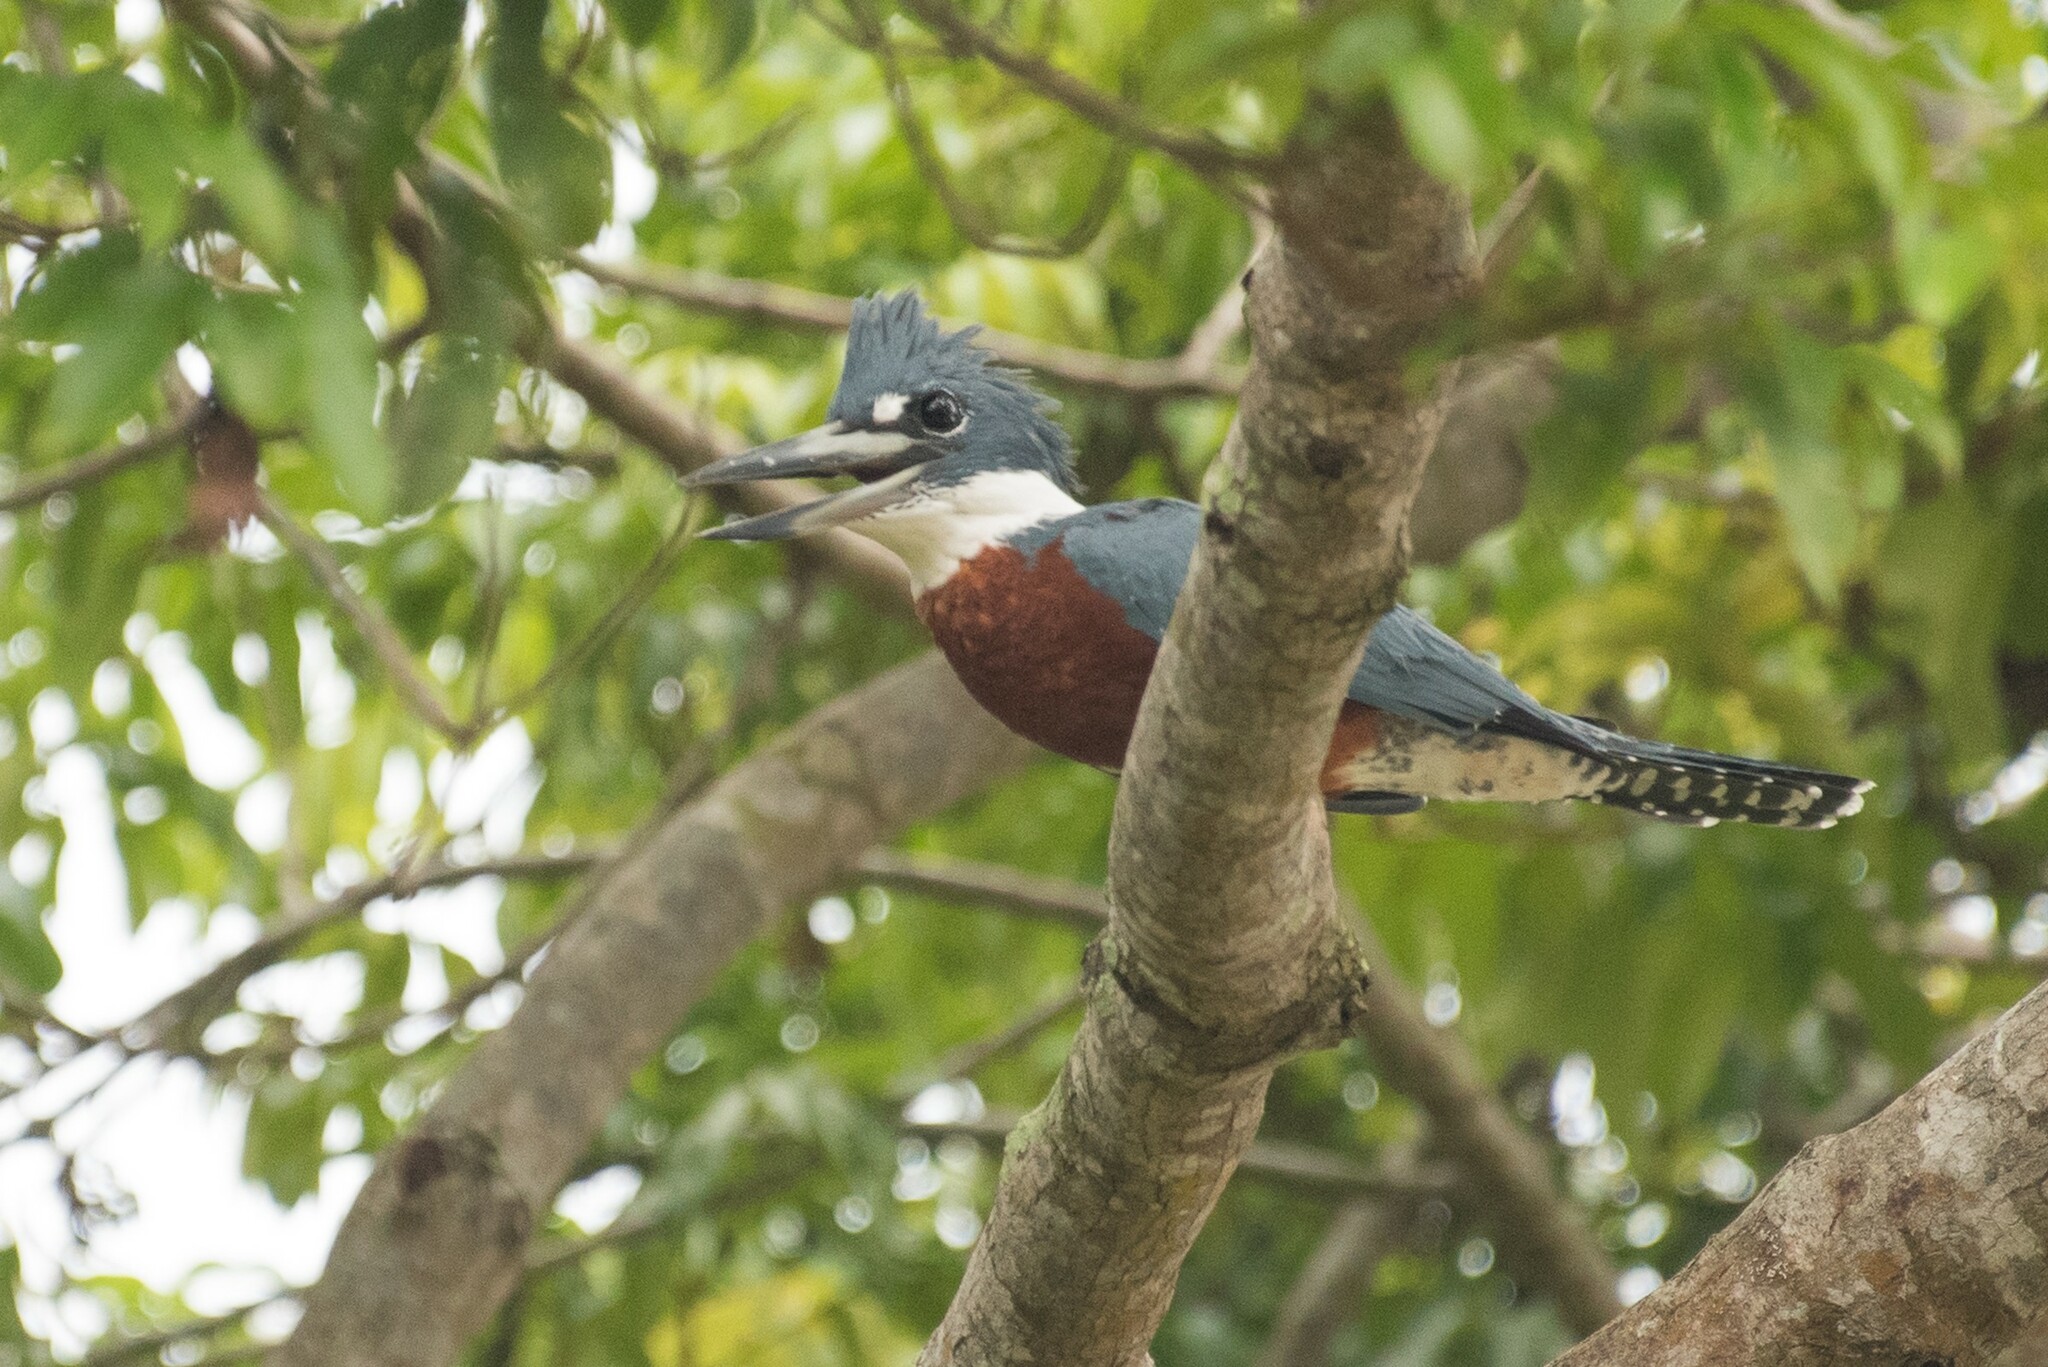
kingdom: Animalia
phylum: Chordata
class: Aves
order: Coraciiformes
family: Alcedinidae
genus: Megaceryle
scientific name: Megaceryle torquata
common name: Ringed kingfisher
